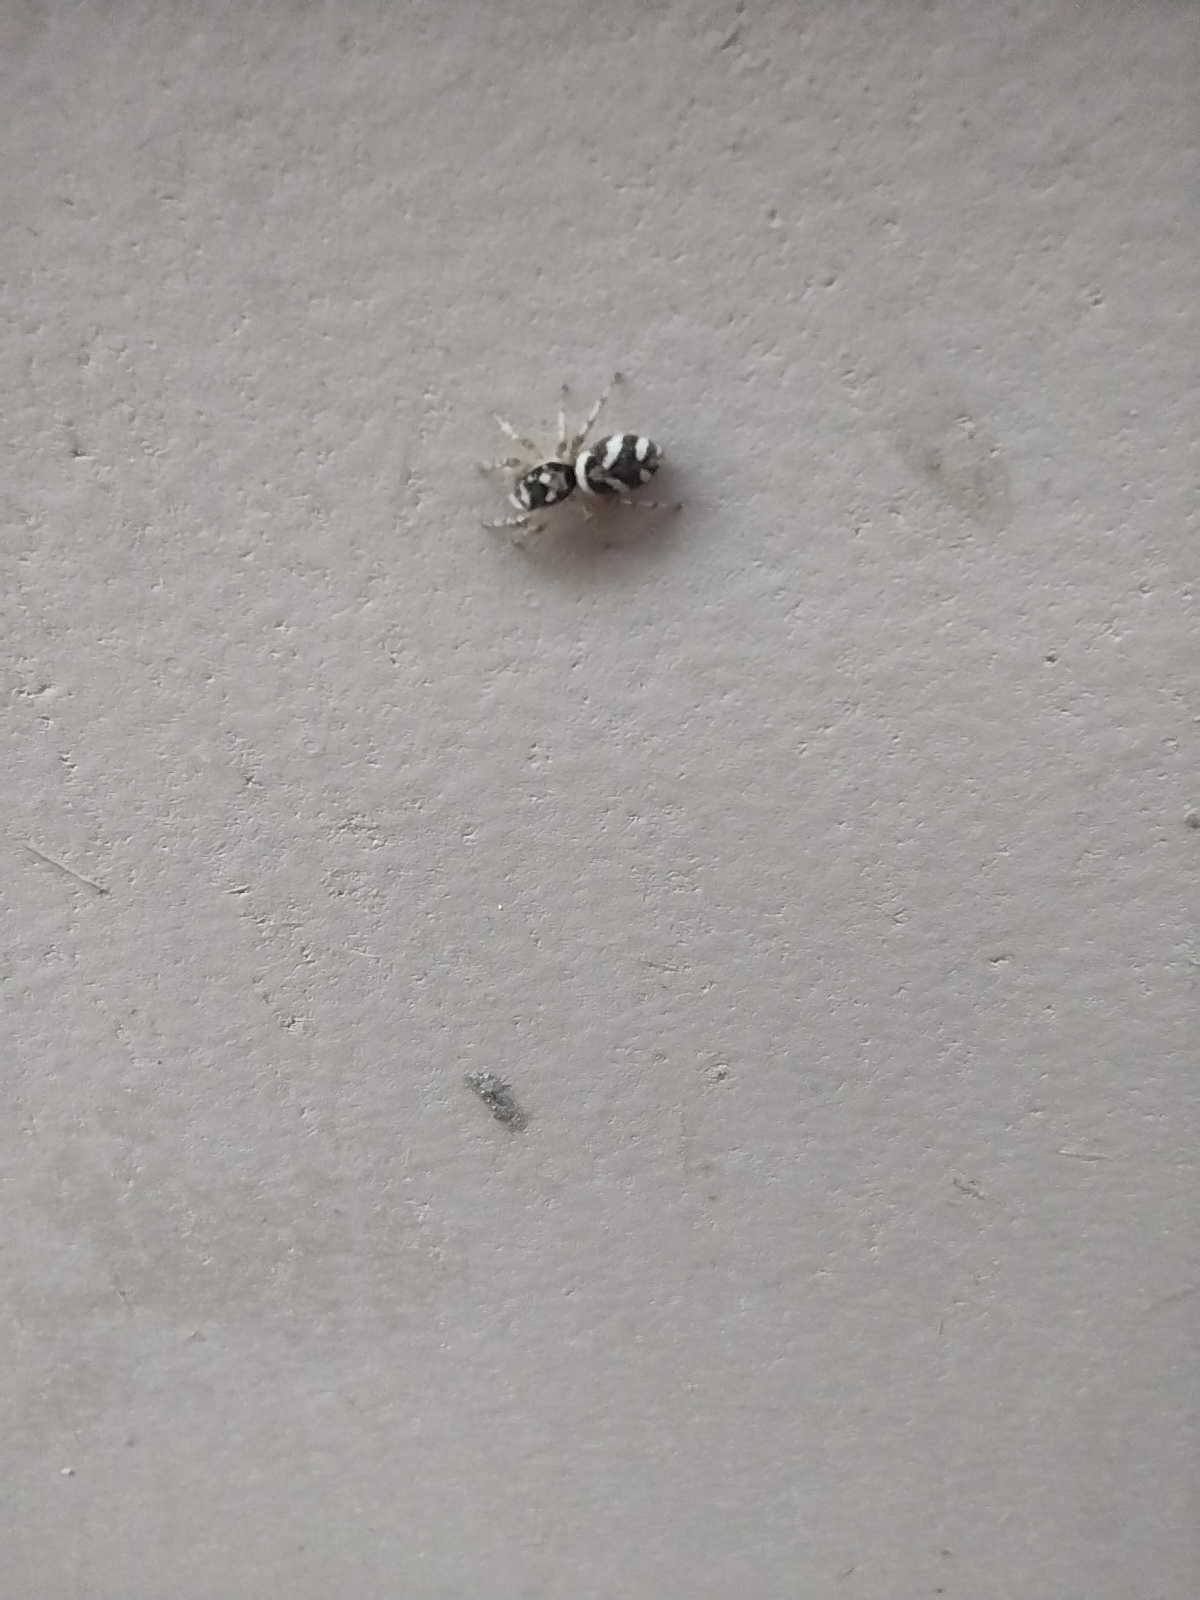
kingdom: Animalia
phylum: Arthropoda
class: Arachnida
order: Araneae
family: Salticidae
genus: Salticus
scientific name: Salticus scenicus
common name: Zebra jumper
